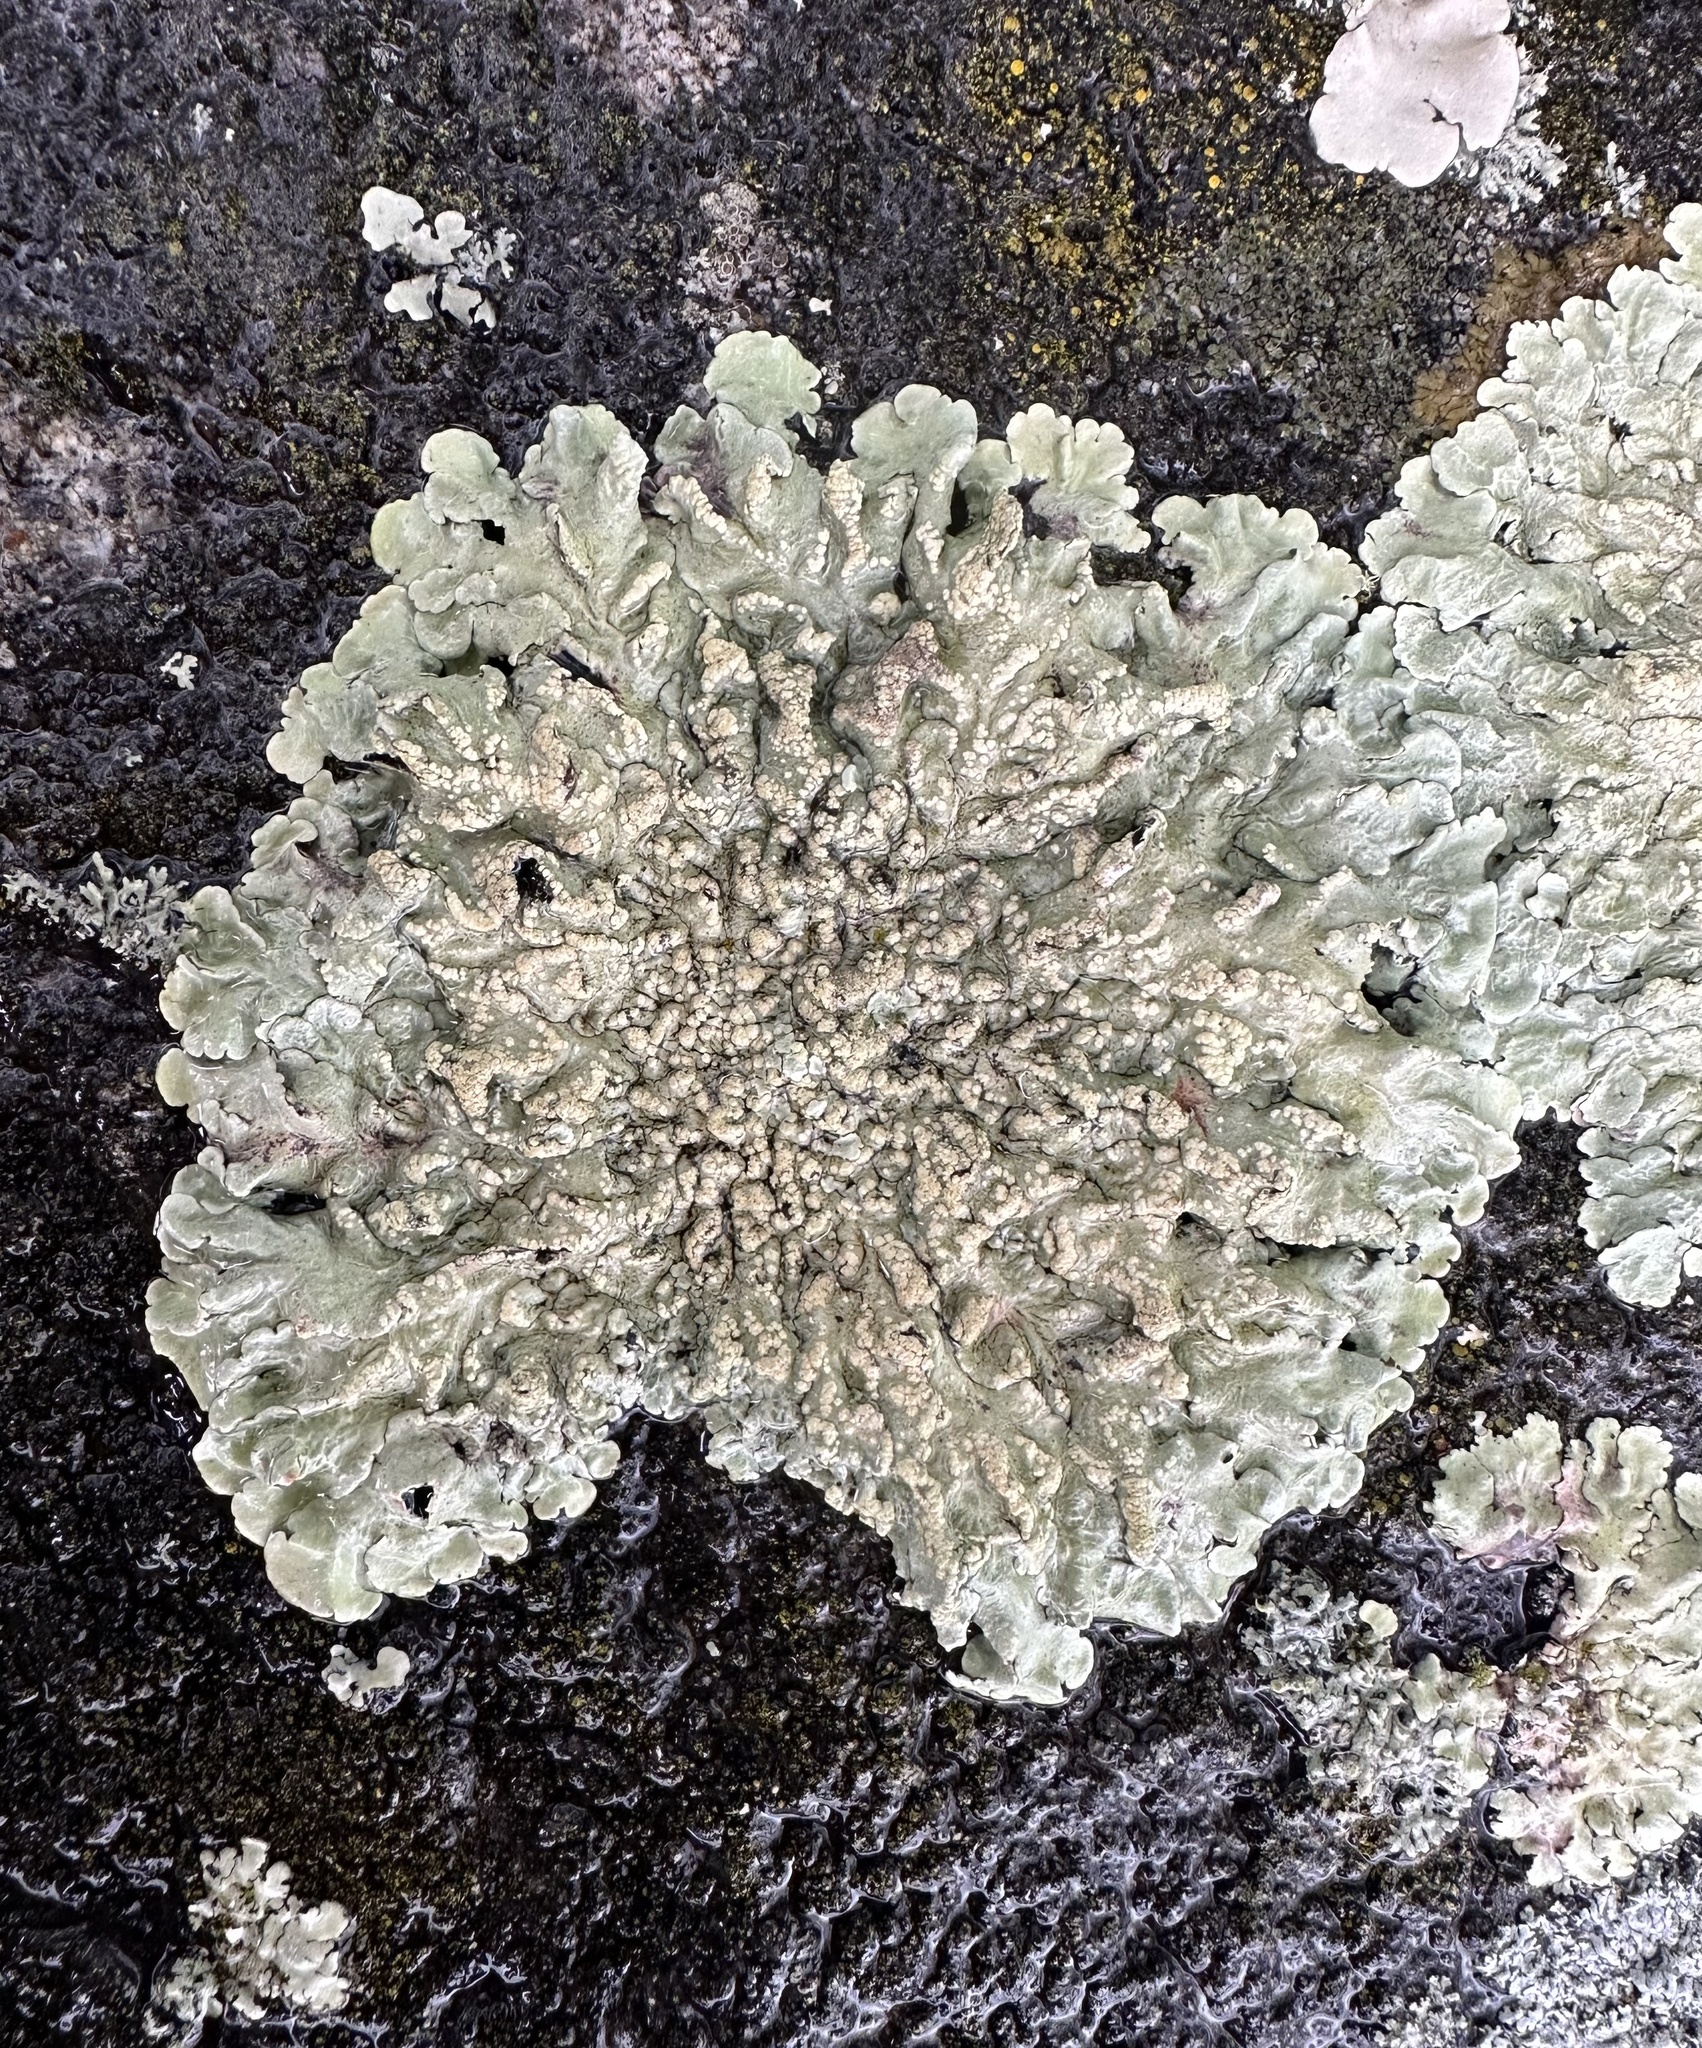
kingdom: Fungi
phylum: Ascomycota
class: Lecanoromycetes
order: Lecanorales
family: Parmeliaceae
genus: Flavoparmelia
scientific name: Flavoparmelia soredians
